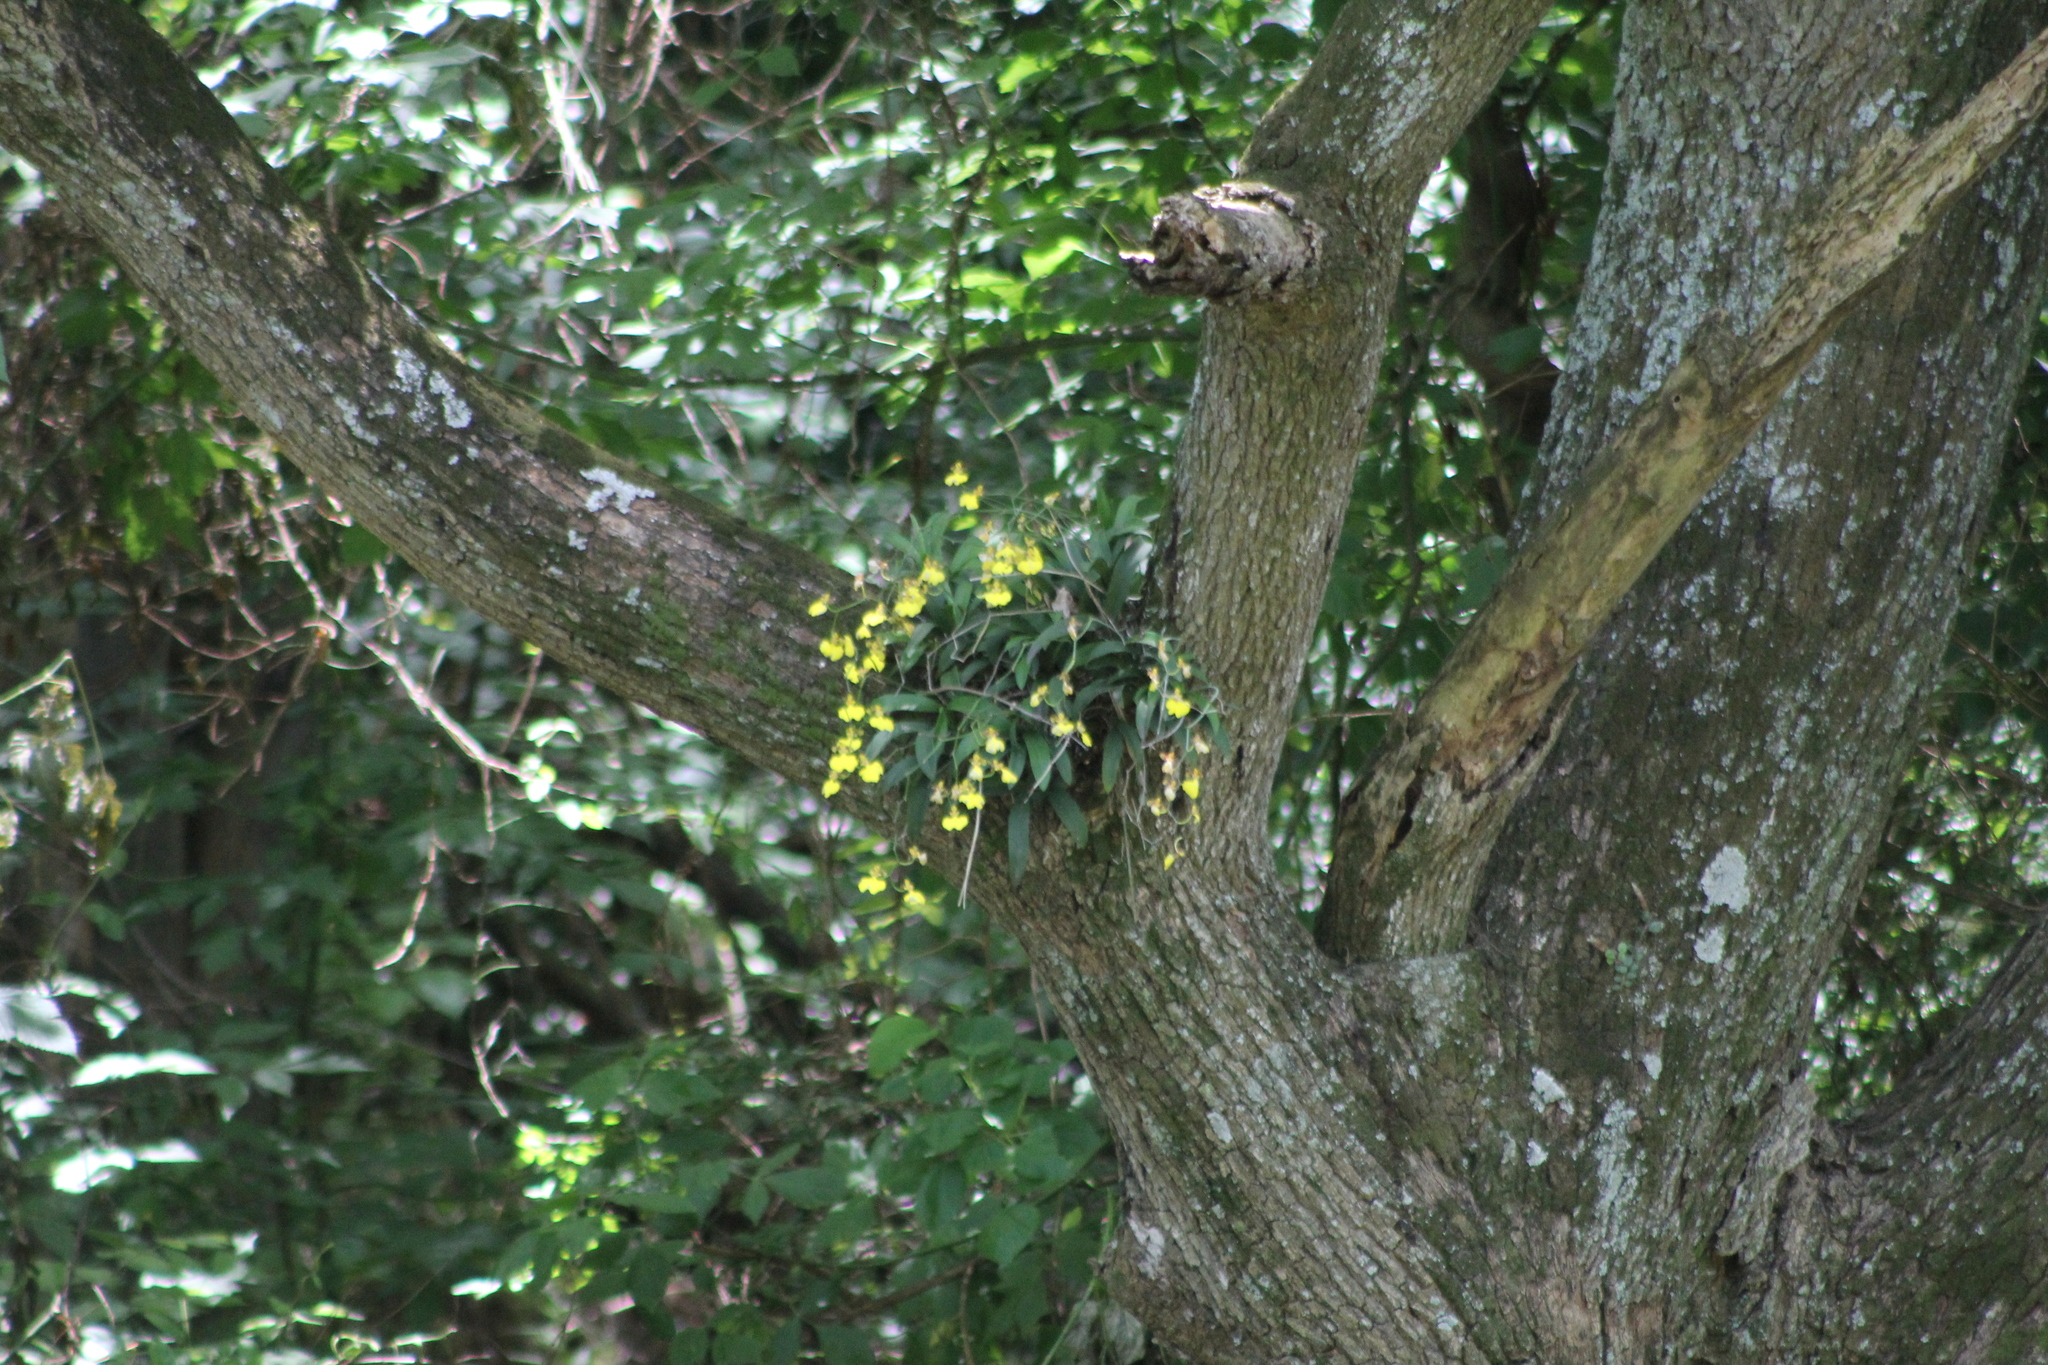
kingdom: Plantae
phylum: Tracheophyta
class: Liliopsida
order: Asparagales
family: Orchidaceae
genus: Gomesa
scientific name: Gomesa bifolia
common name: Dancing ladies
